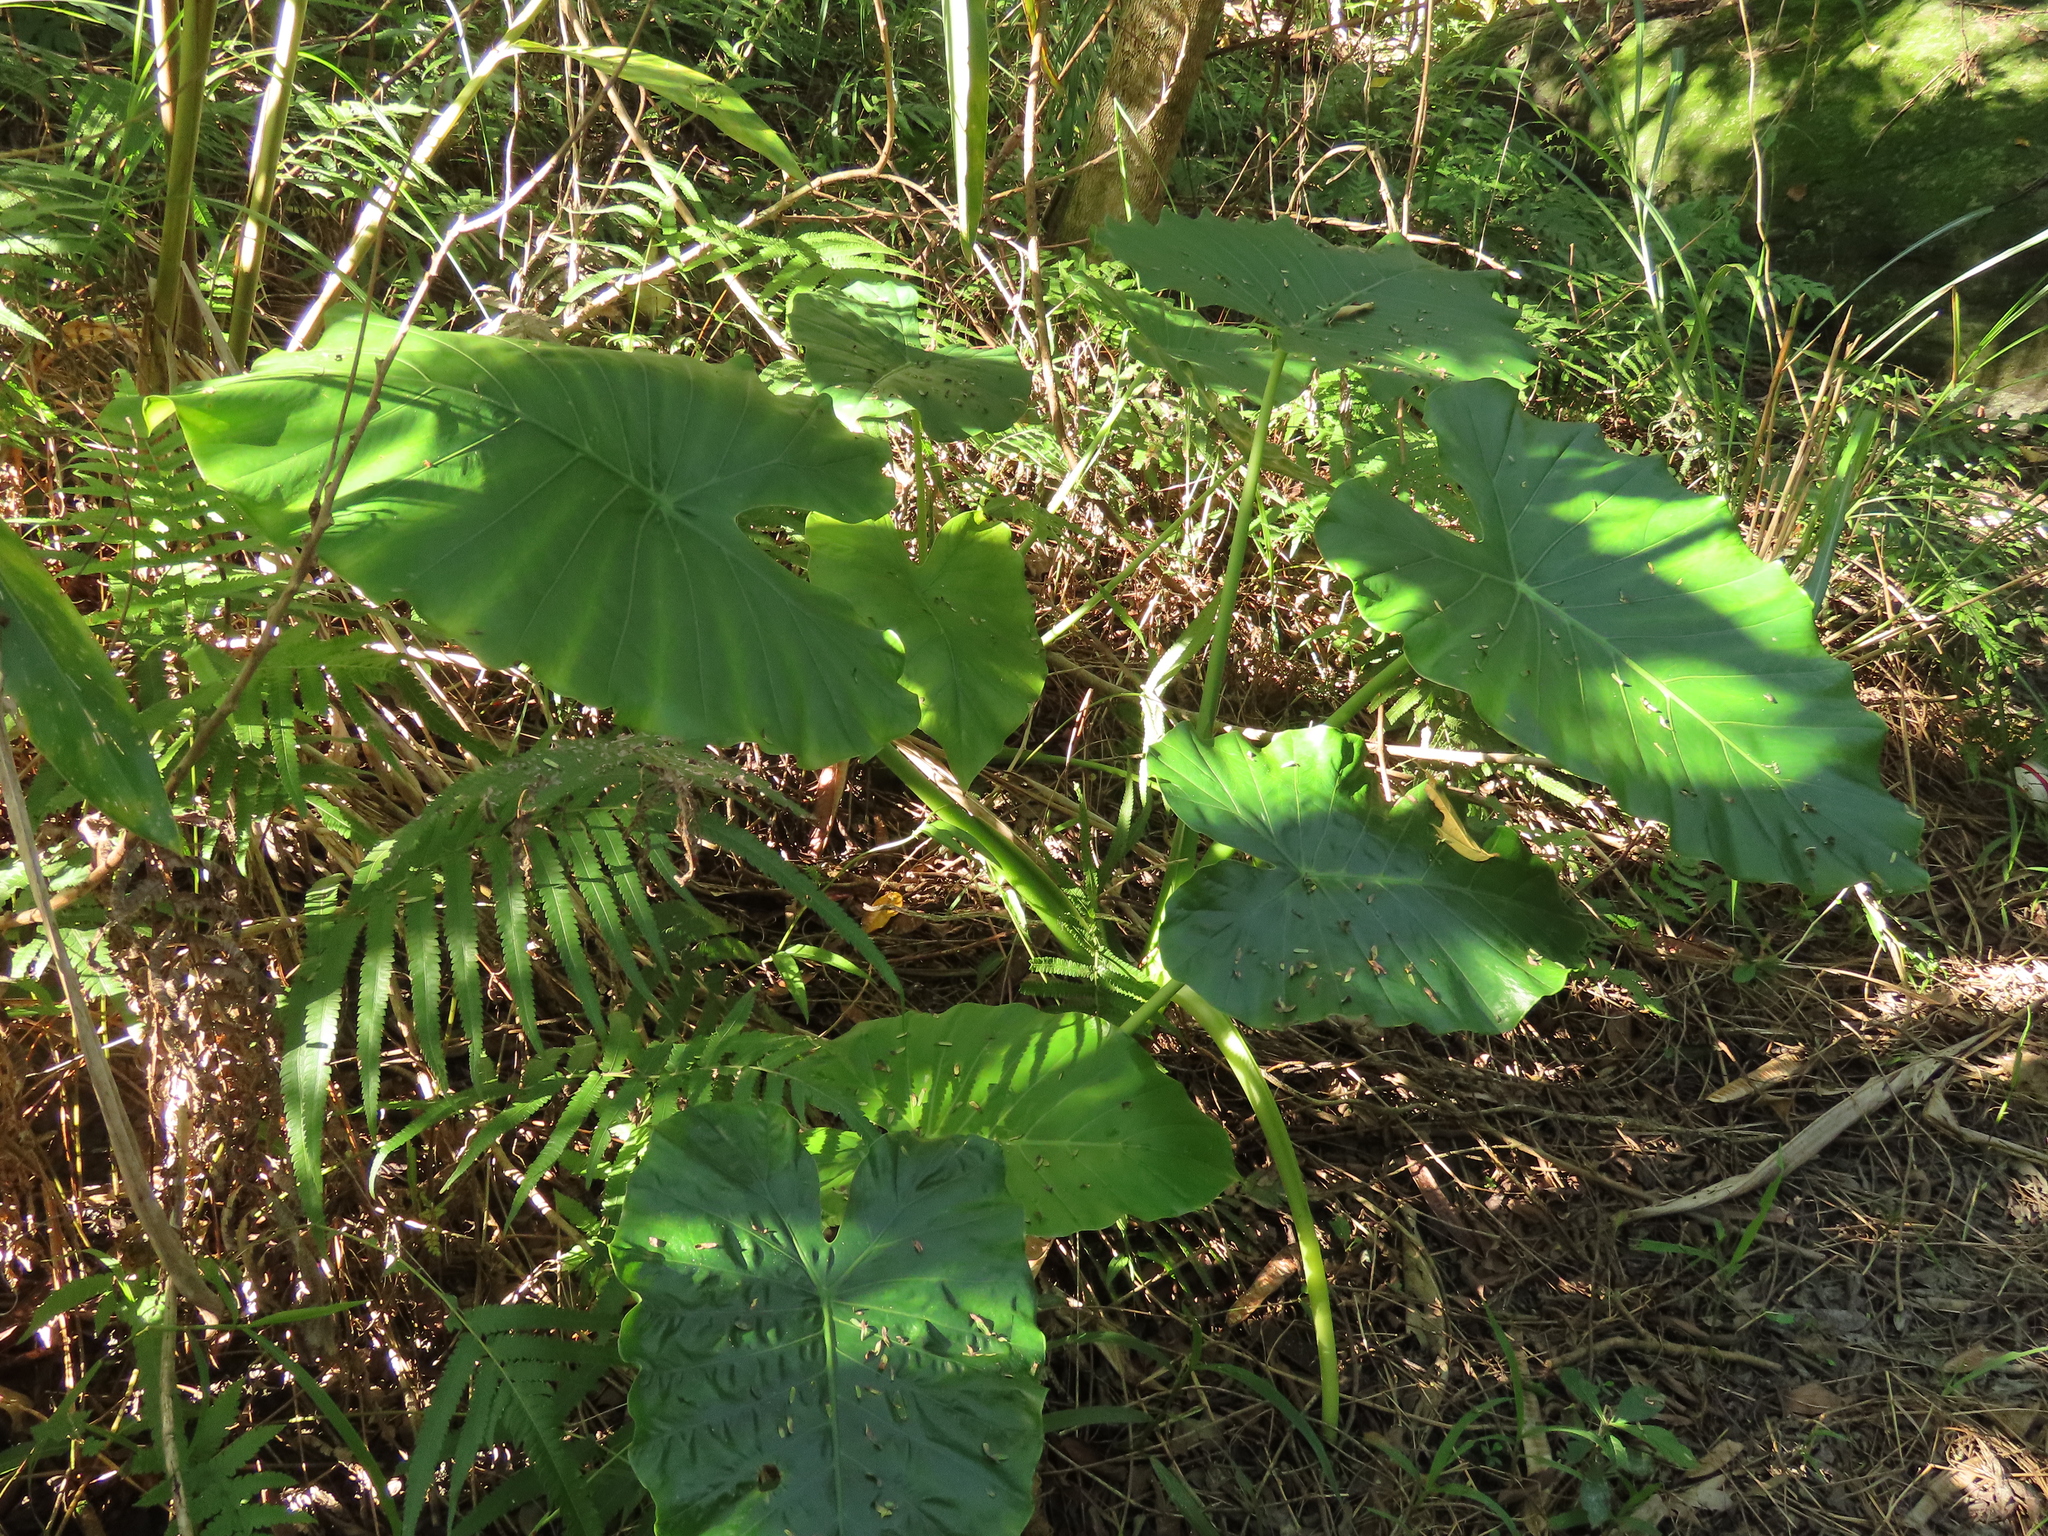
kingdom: Plantae
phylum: Tracheophyta
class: Liliopsida
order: Alismatales
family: Araceae
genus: Alocasia
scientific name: Alocasia odora
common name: Asian taro
